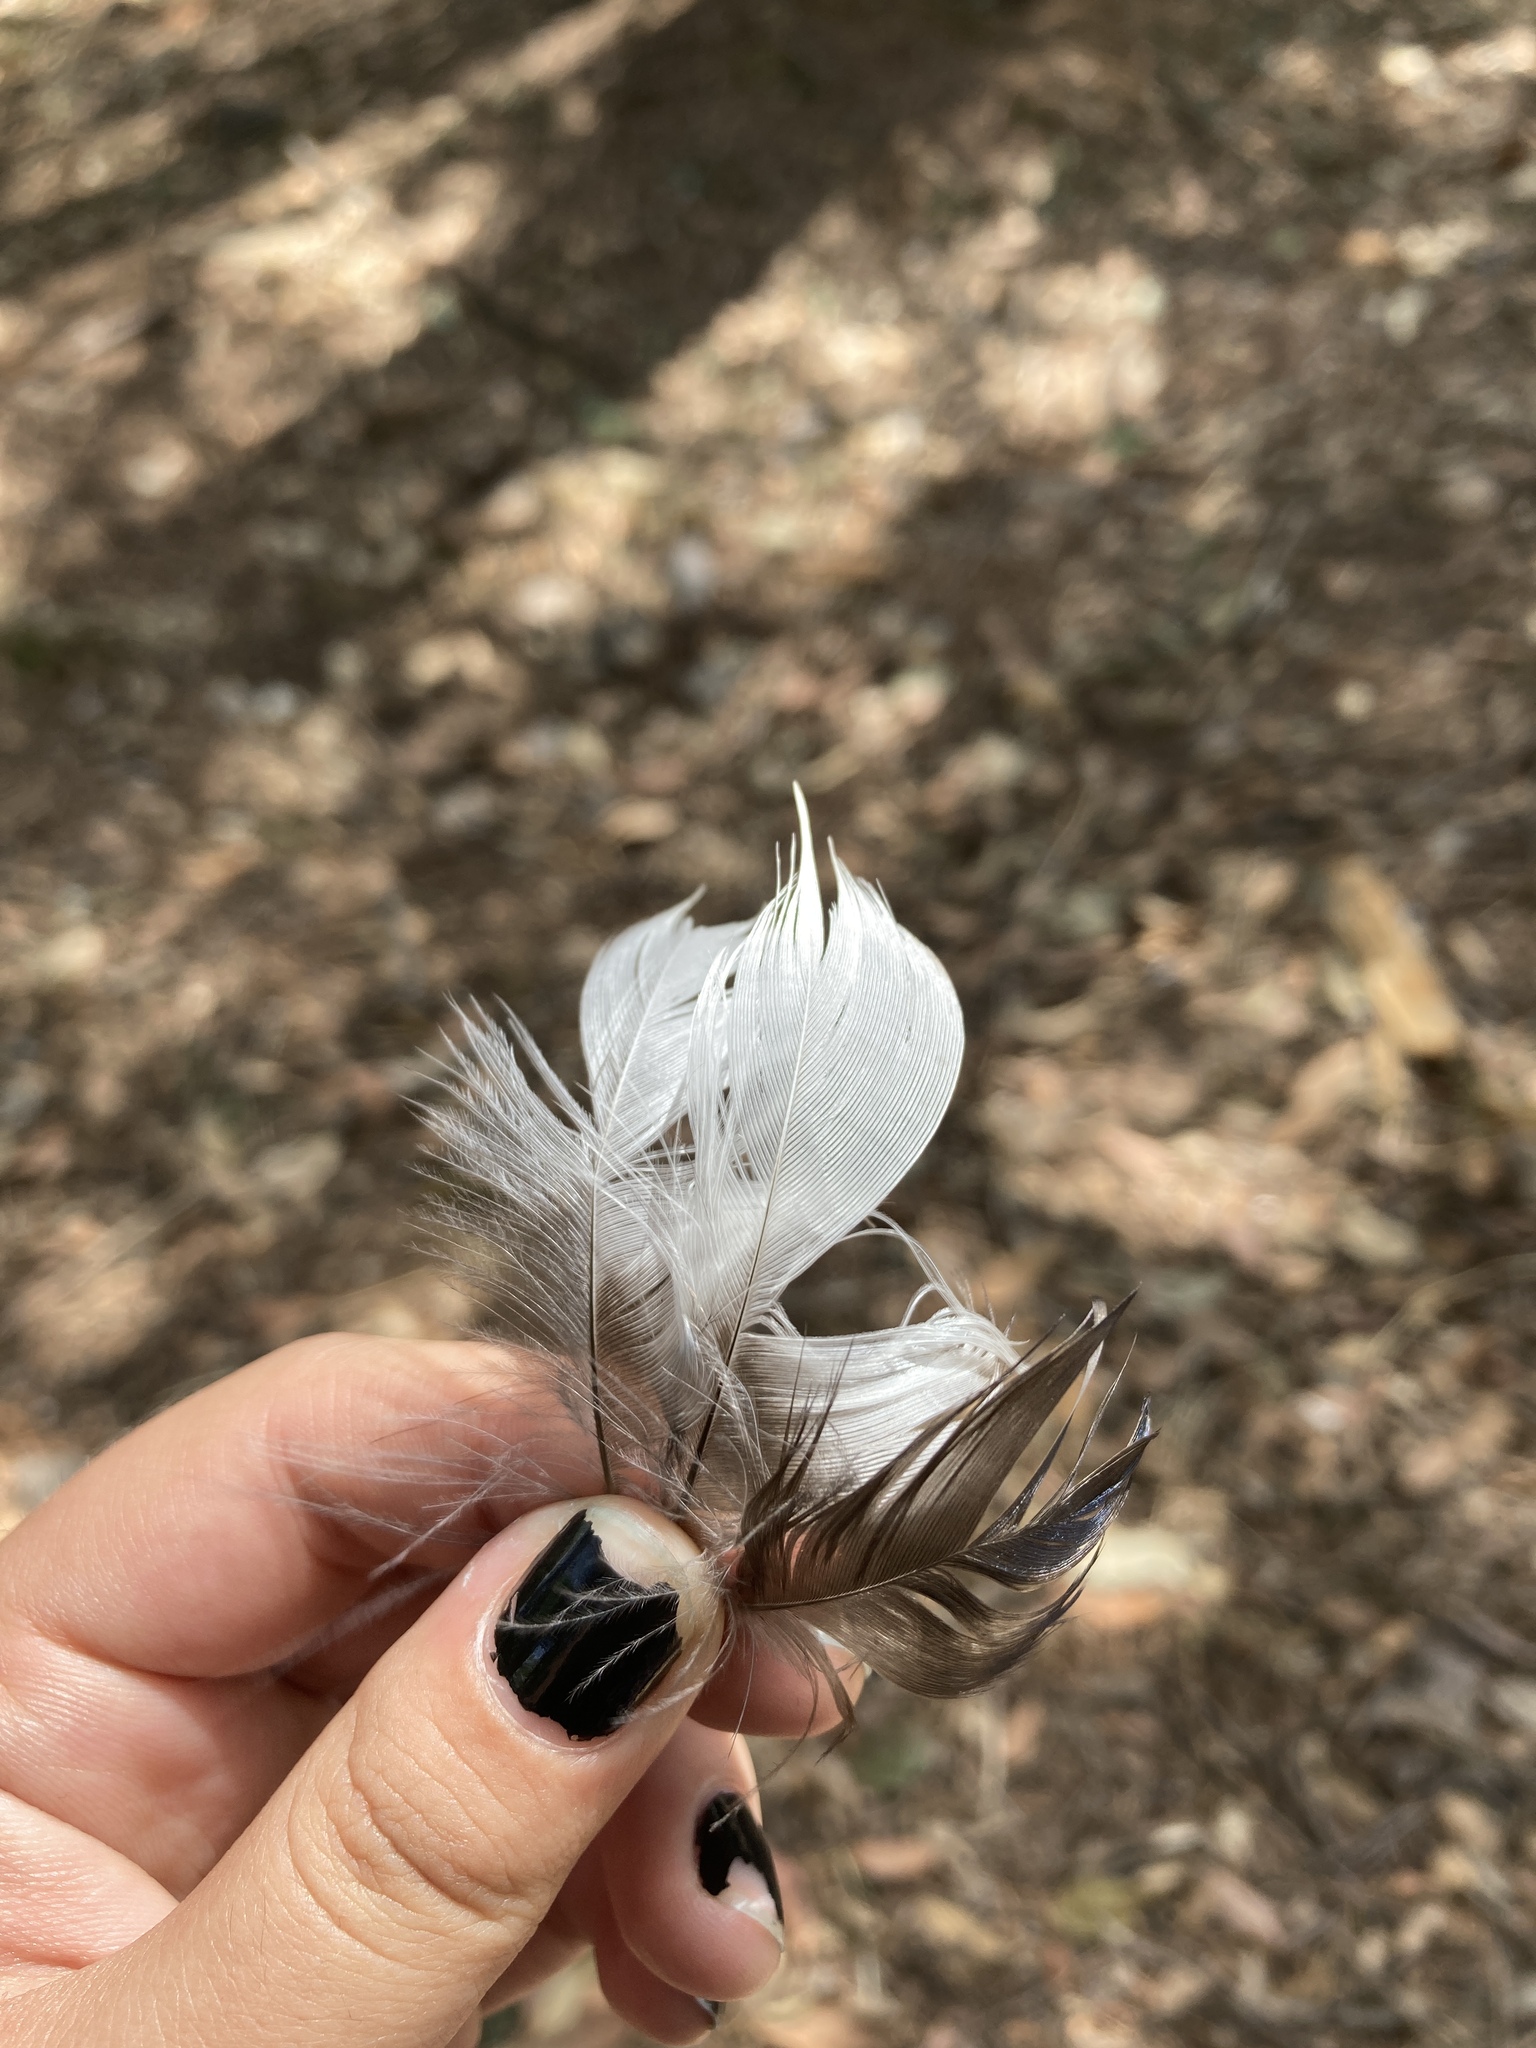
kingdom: Animalia
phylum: Chordata
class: Aves
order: Passeriformes
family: Corvidae
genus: Pica
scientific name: Pica pica
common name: Eurasian magpie
